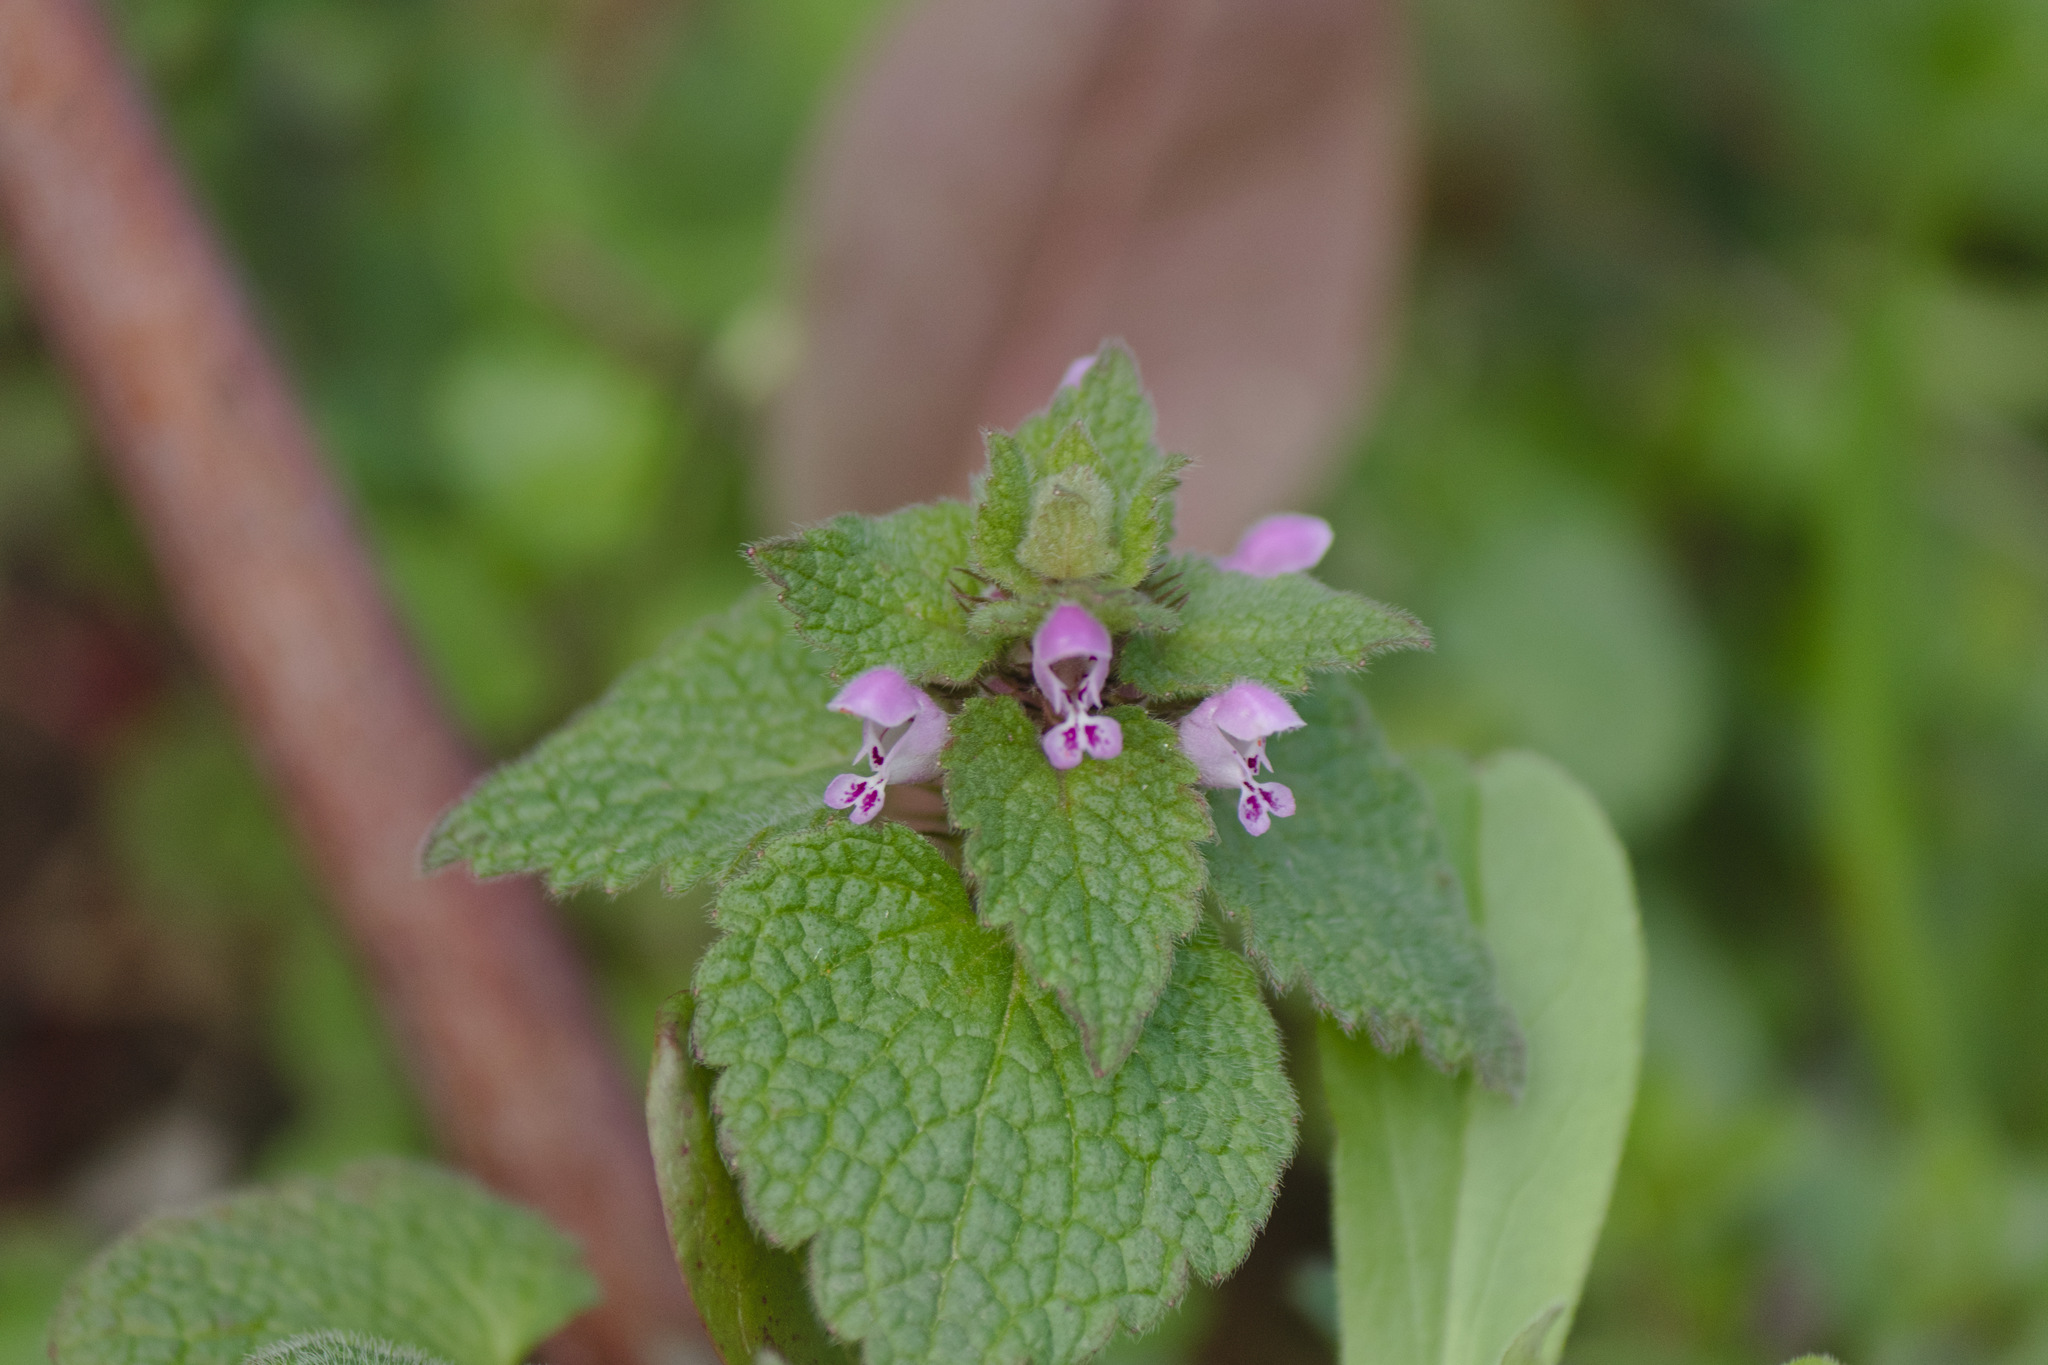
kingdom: Plantae
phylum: Tracheophyta
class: Magnoliopsida
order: Lamiales
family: Lamiaceae
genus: Lamium
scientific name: Lamium purpureum
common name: Red dead-nettle
